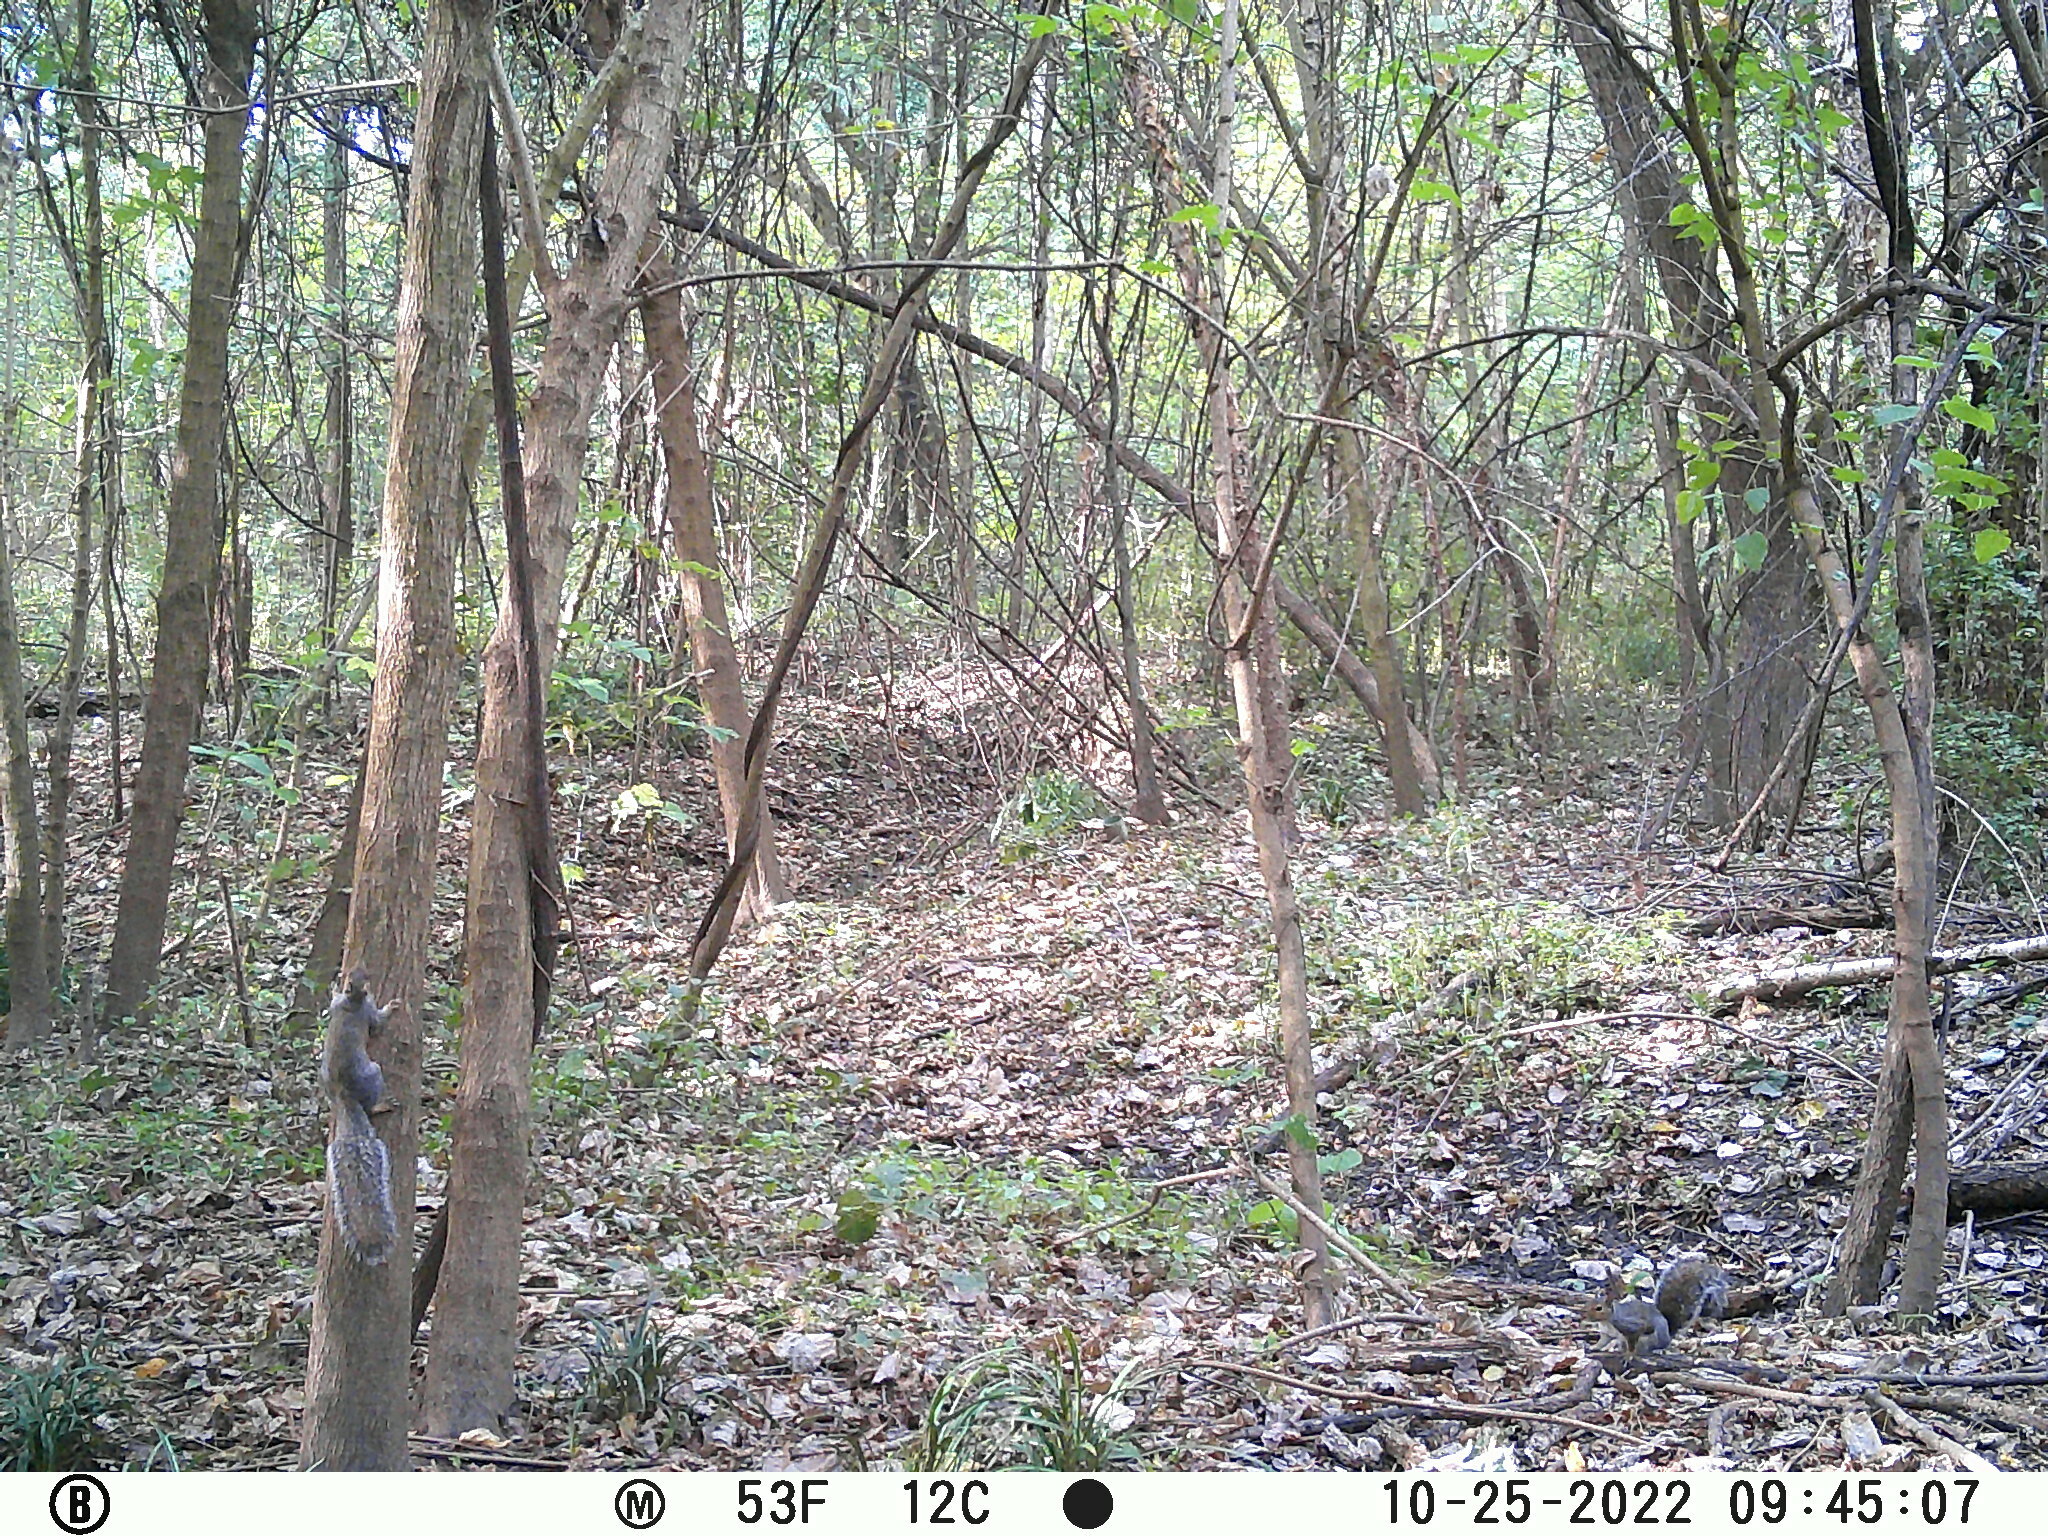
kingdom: Animalia
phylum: Chordata
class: Mammalia
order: Rodentia
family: Sciuridae
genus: Sciurus
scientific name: Sciurus carolinensis
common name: Eastern gray squirrel
